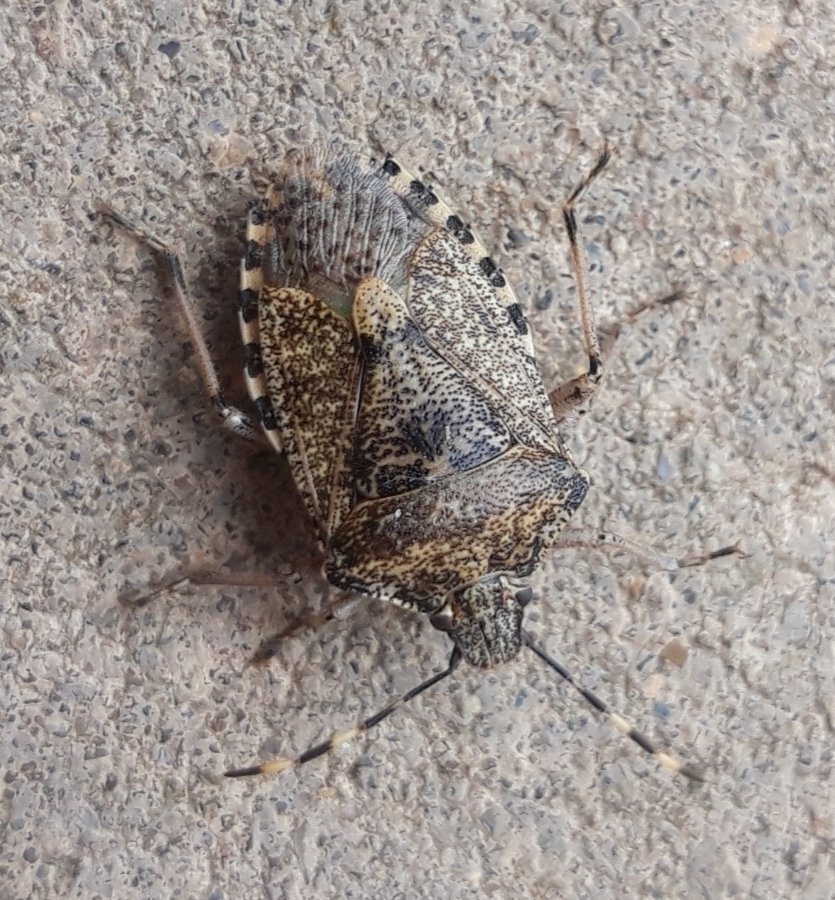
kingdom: Animalia
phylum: Arthropoda
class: Insecta
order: Hemiptera
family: Pentatomidae
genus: Rhaphigaster
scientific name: Rhaphigaster nebulosa
